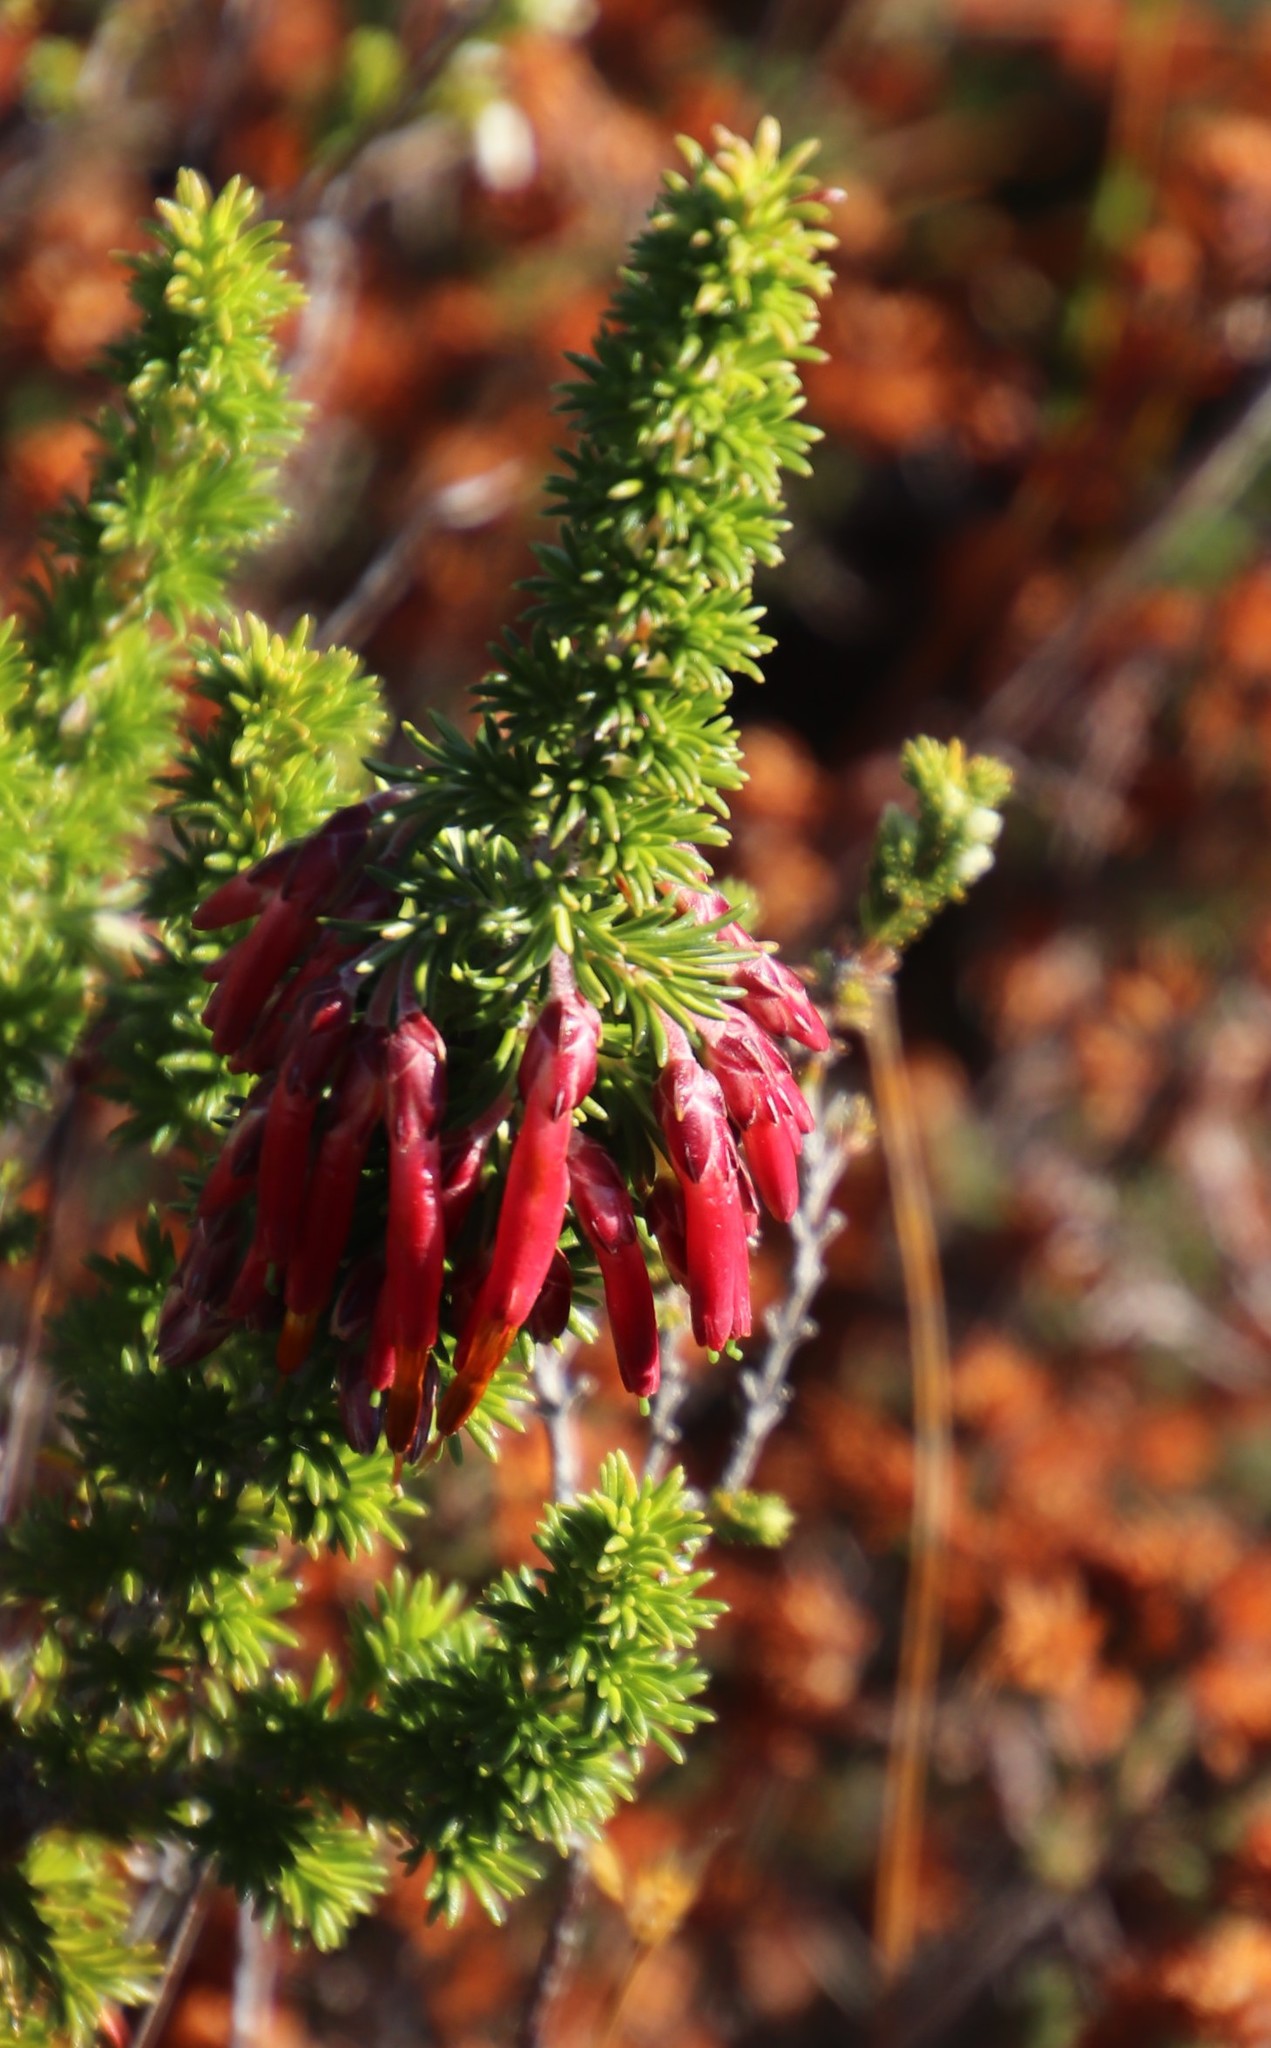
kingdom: Plantae
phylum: Tracheophyta
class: Magnoliopsida
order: Ericales
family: Ericaceae
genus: Erica
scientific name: Erica coccinea
